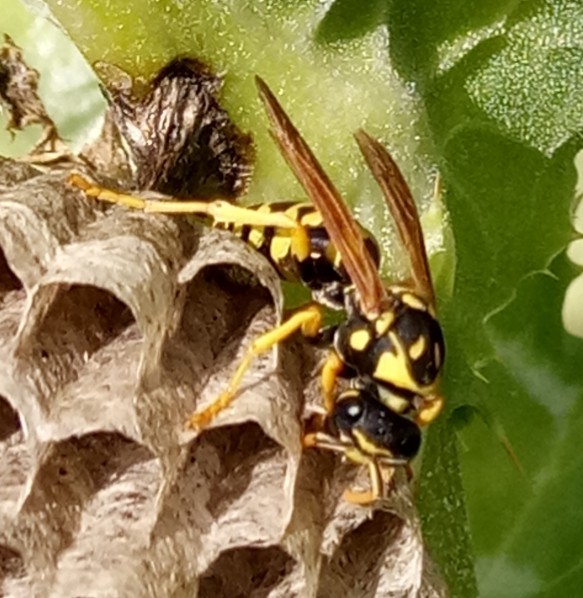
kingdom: Animalia
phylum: Arthropoda
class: Insecta
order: Hymenoptera
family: Eumenidae
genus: Polistes
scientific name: Polistes dominula
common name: Paper wasp
